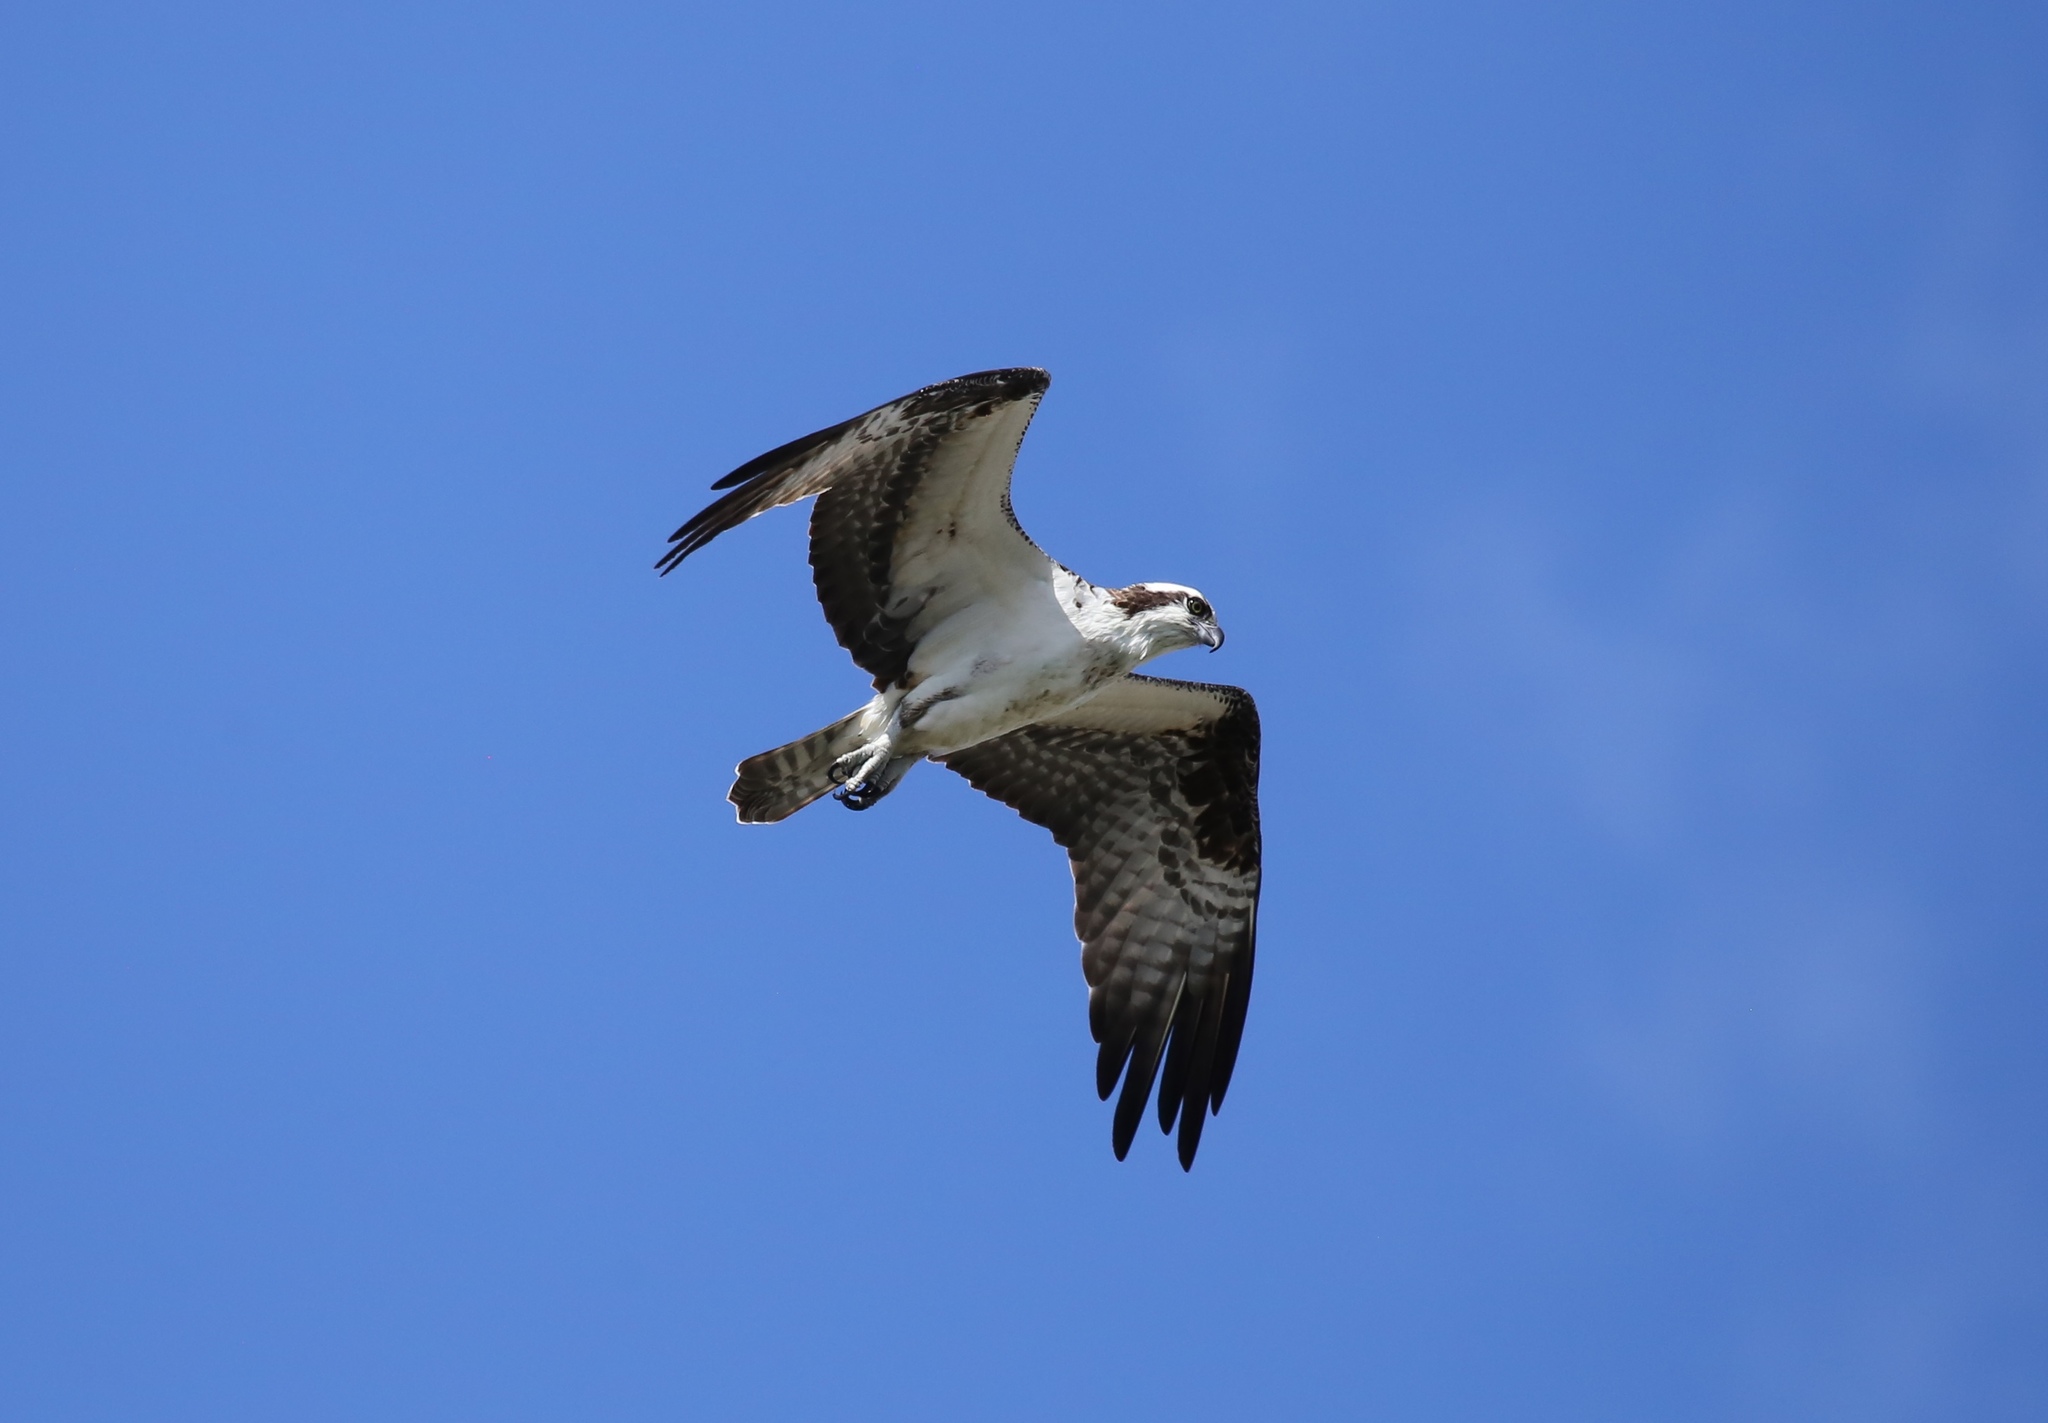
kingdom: Animalia
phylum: Chordata
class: Aves
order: Accipitriformes
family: Pandionidae
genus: Pandion
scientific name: Pandion haliaetus
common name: Osprey
